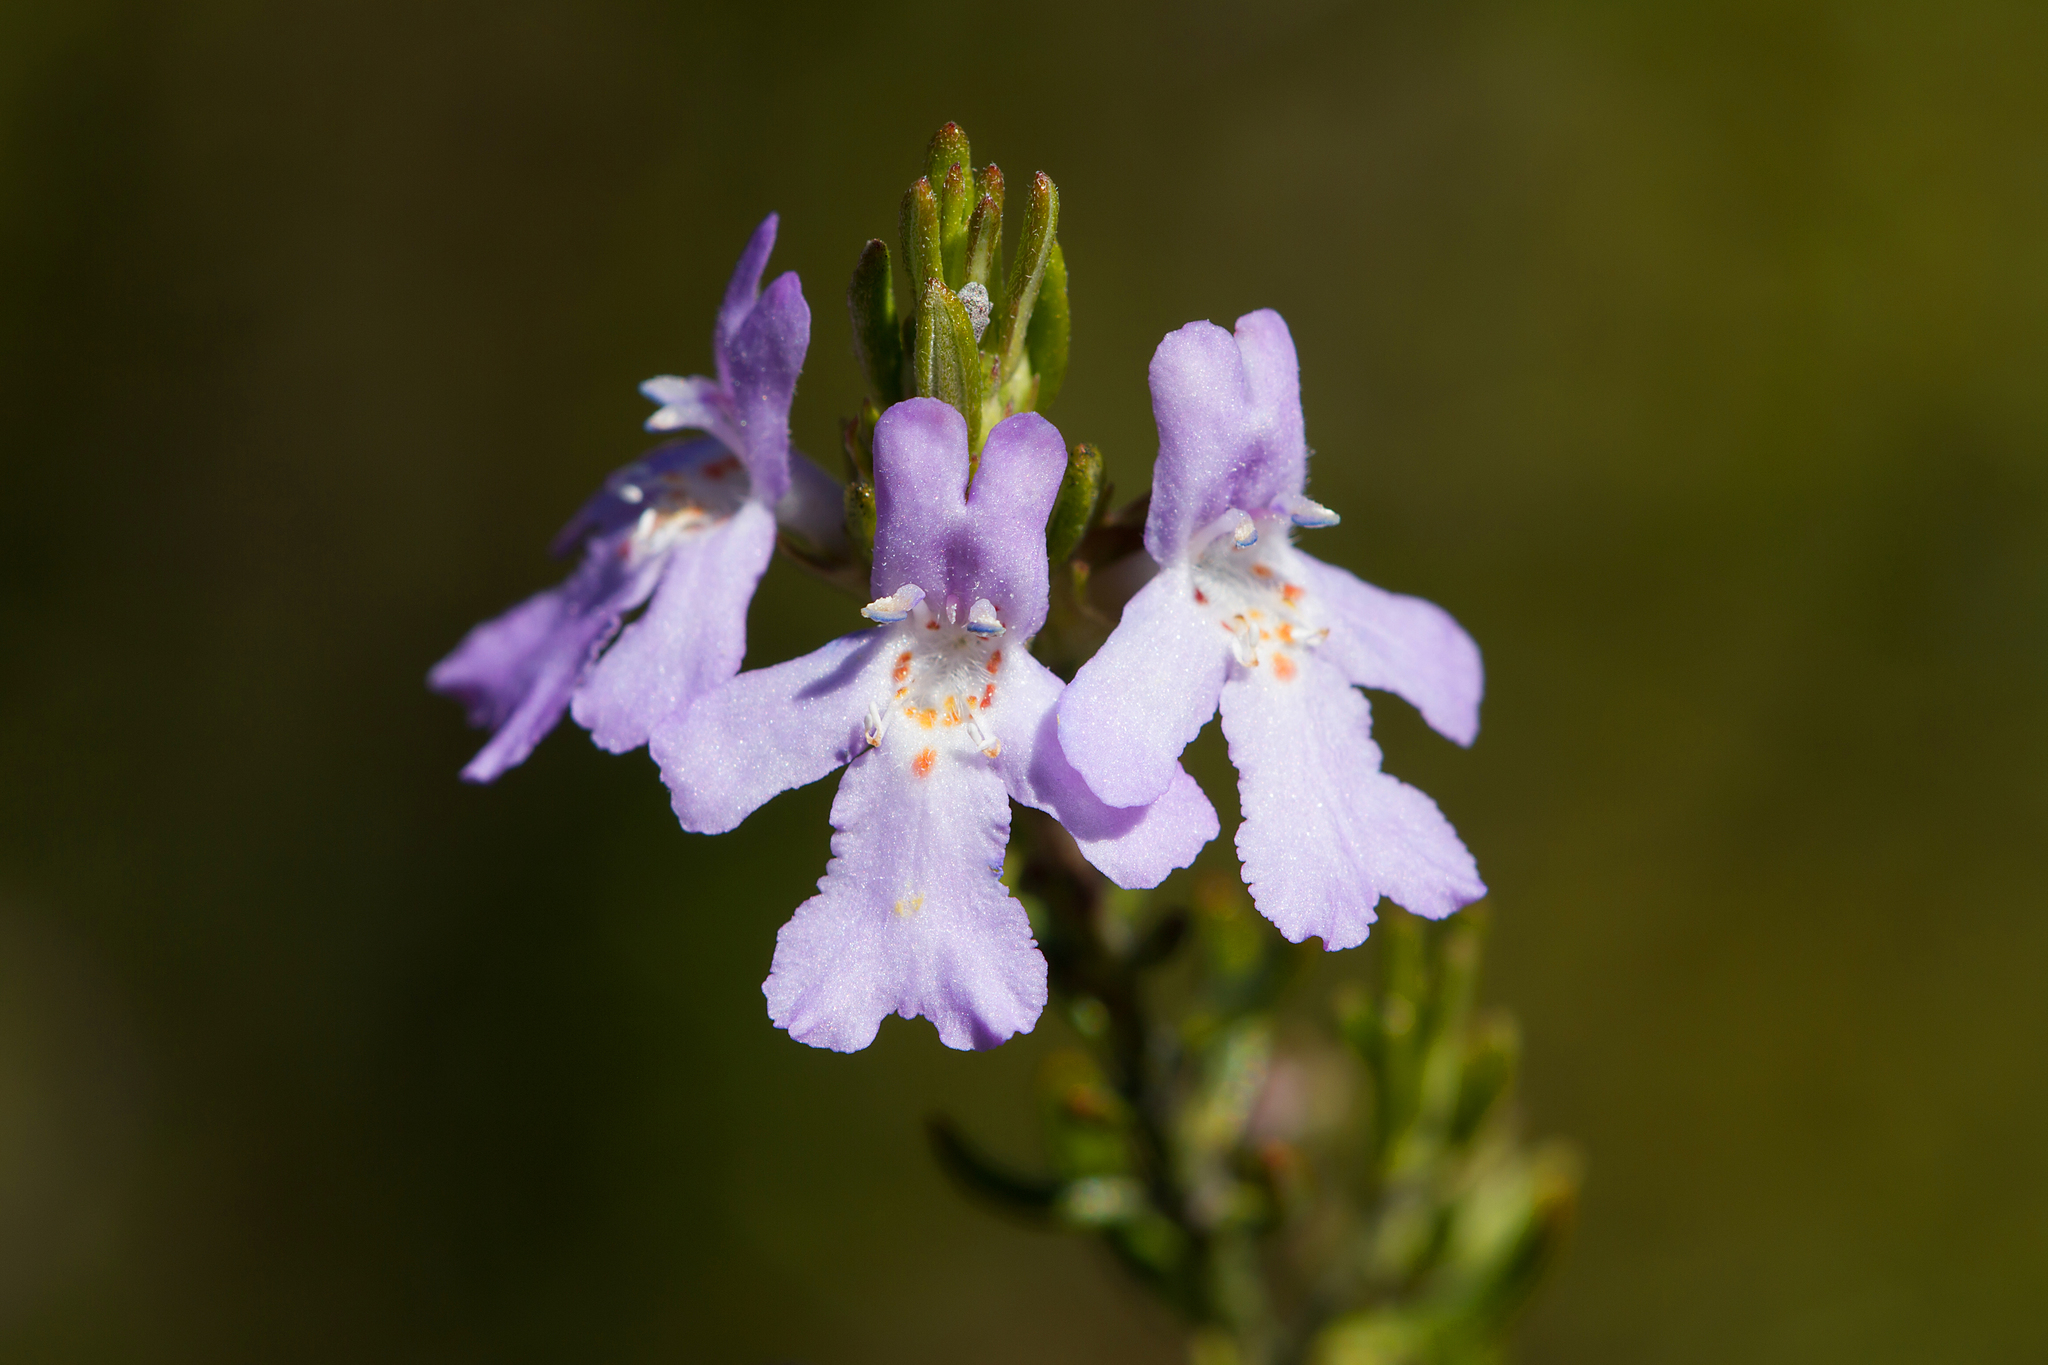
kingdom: Plantae
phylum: Tracheophyta
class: Magnoliopsida
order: Lamiales
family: Lamiaceae
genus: Westringia
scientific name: Westringia eremicola
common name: Slender western-rosemary
